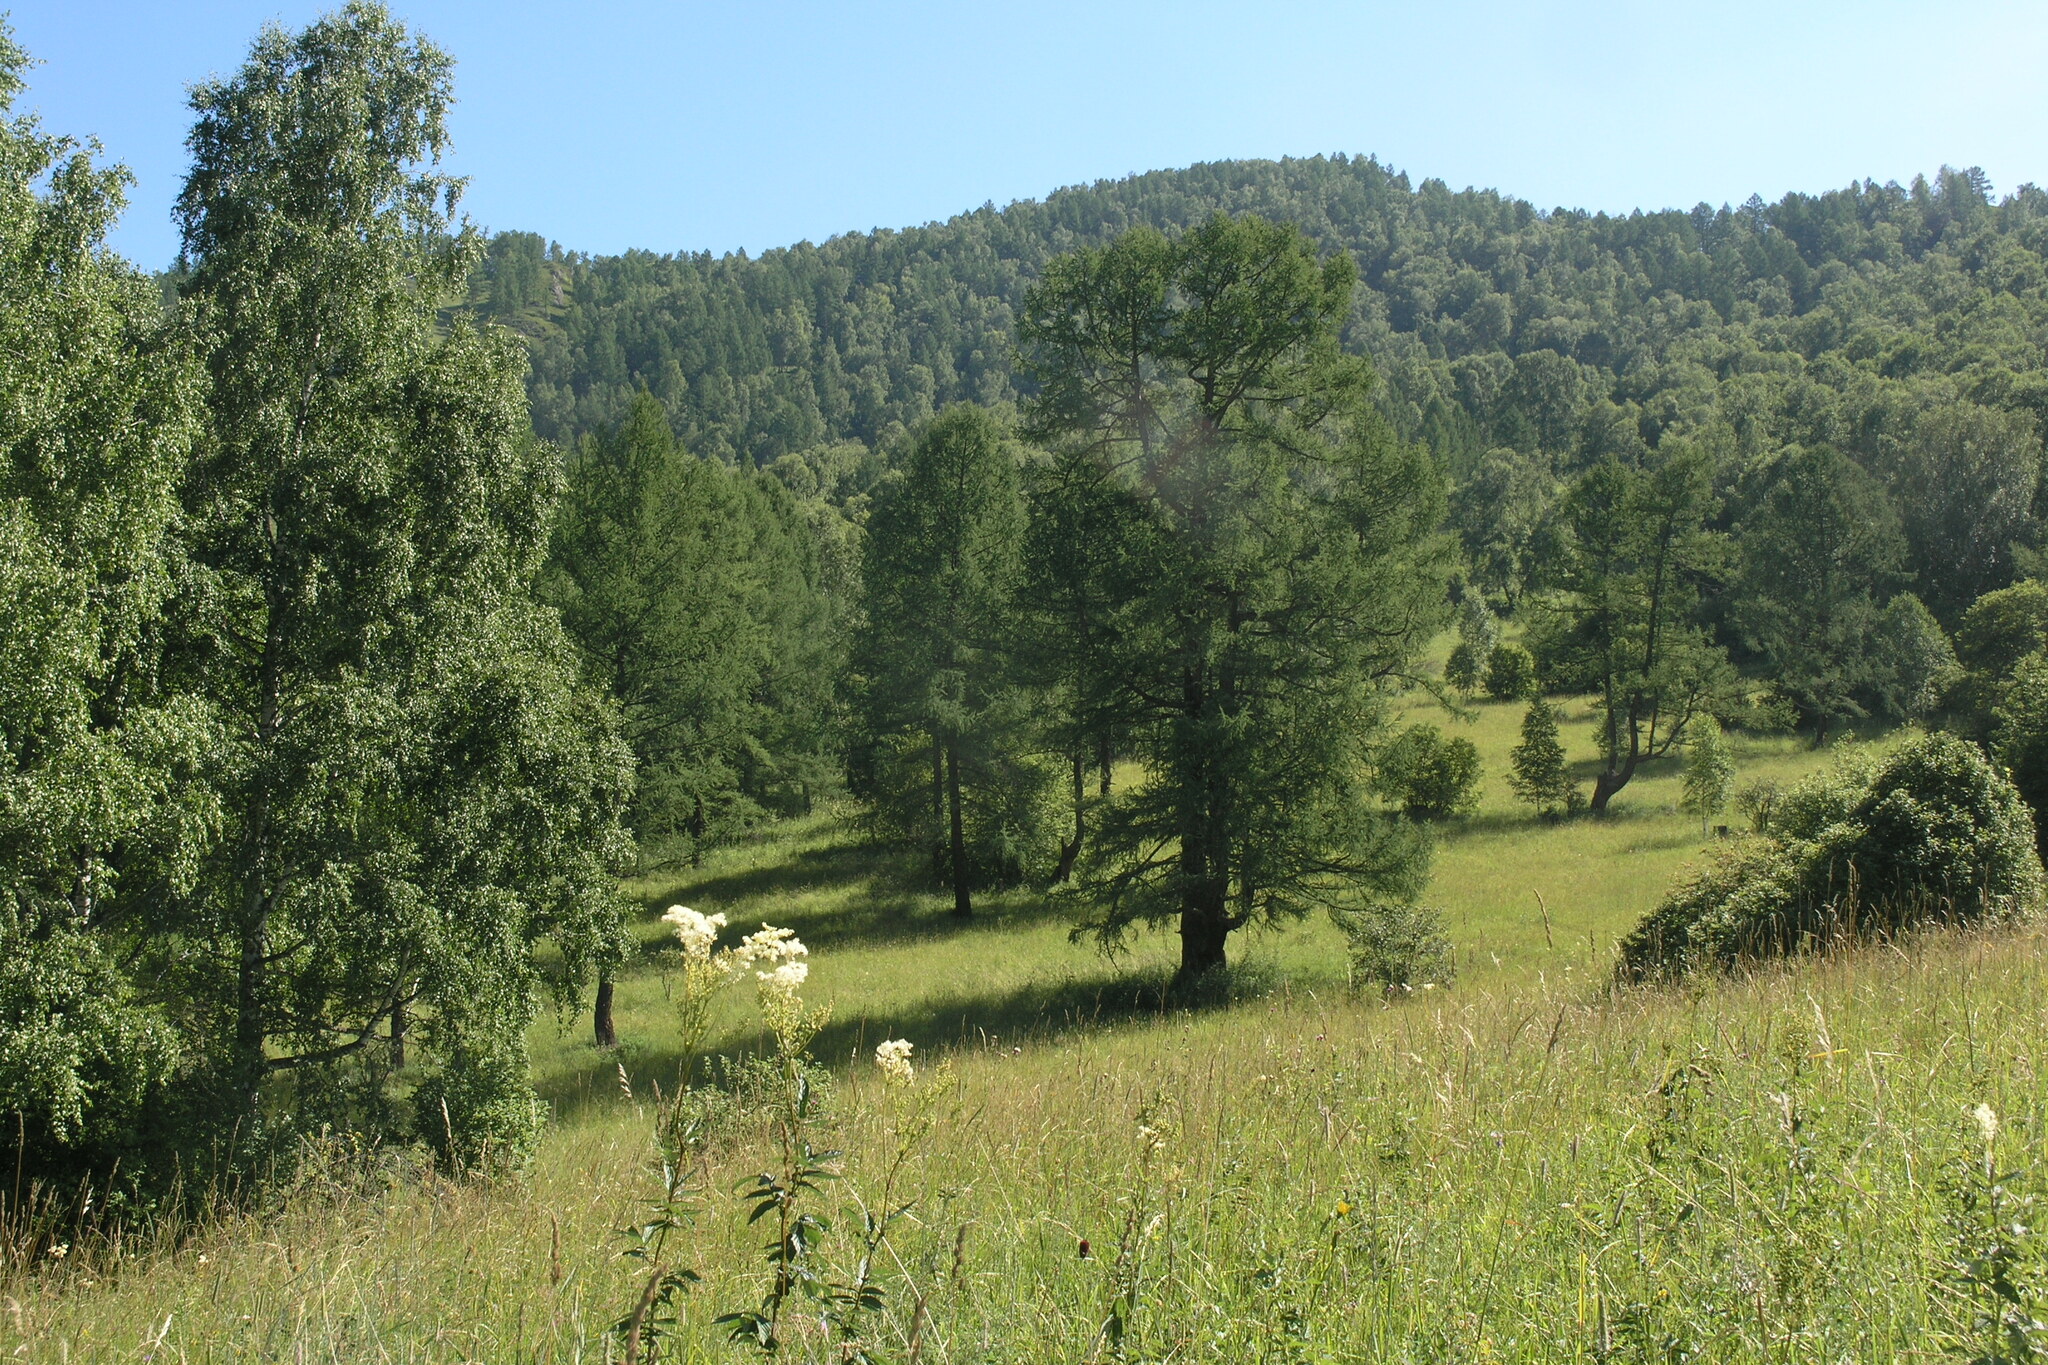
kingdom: Plantae
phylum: Tracheophyta
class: Pinopsida
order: Pinales
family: Pinaceae
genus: Larix
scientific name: Larix sibirica
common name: Siberian larch
